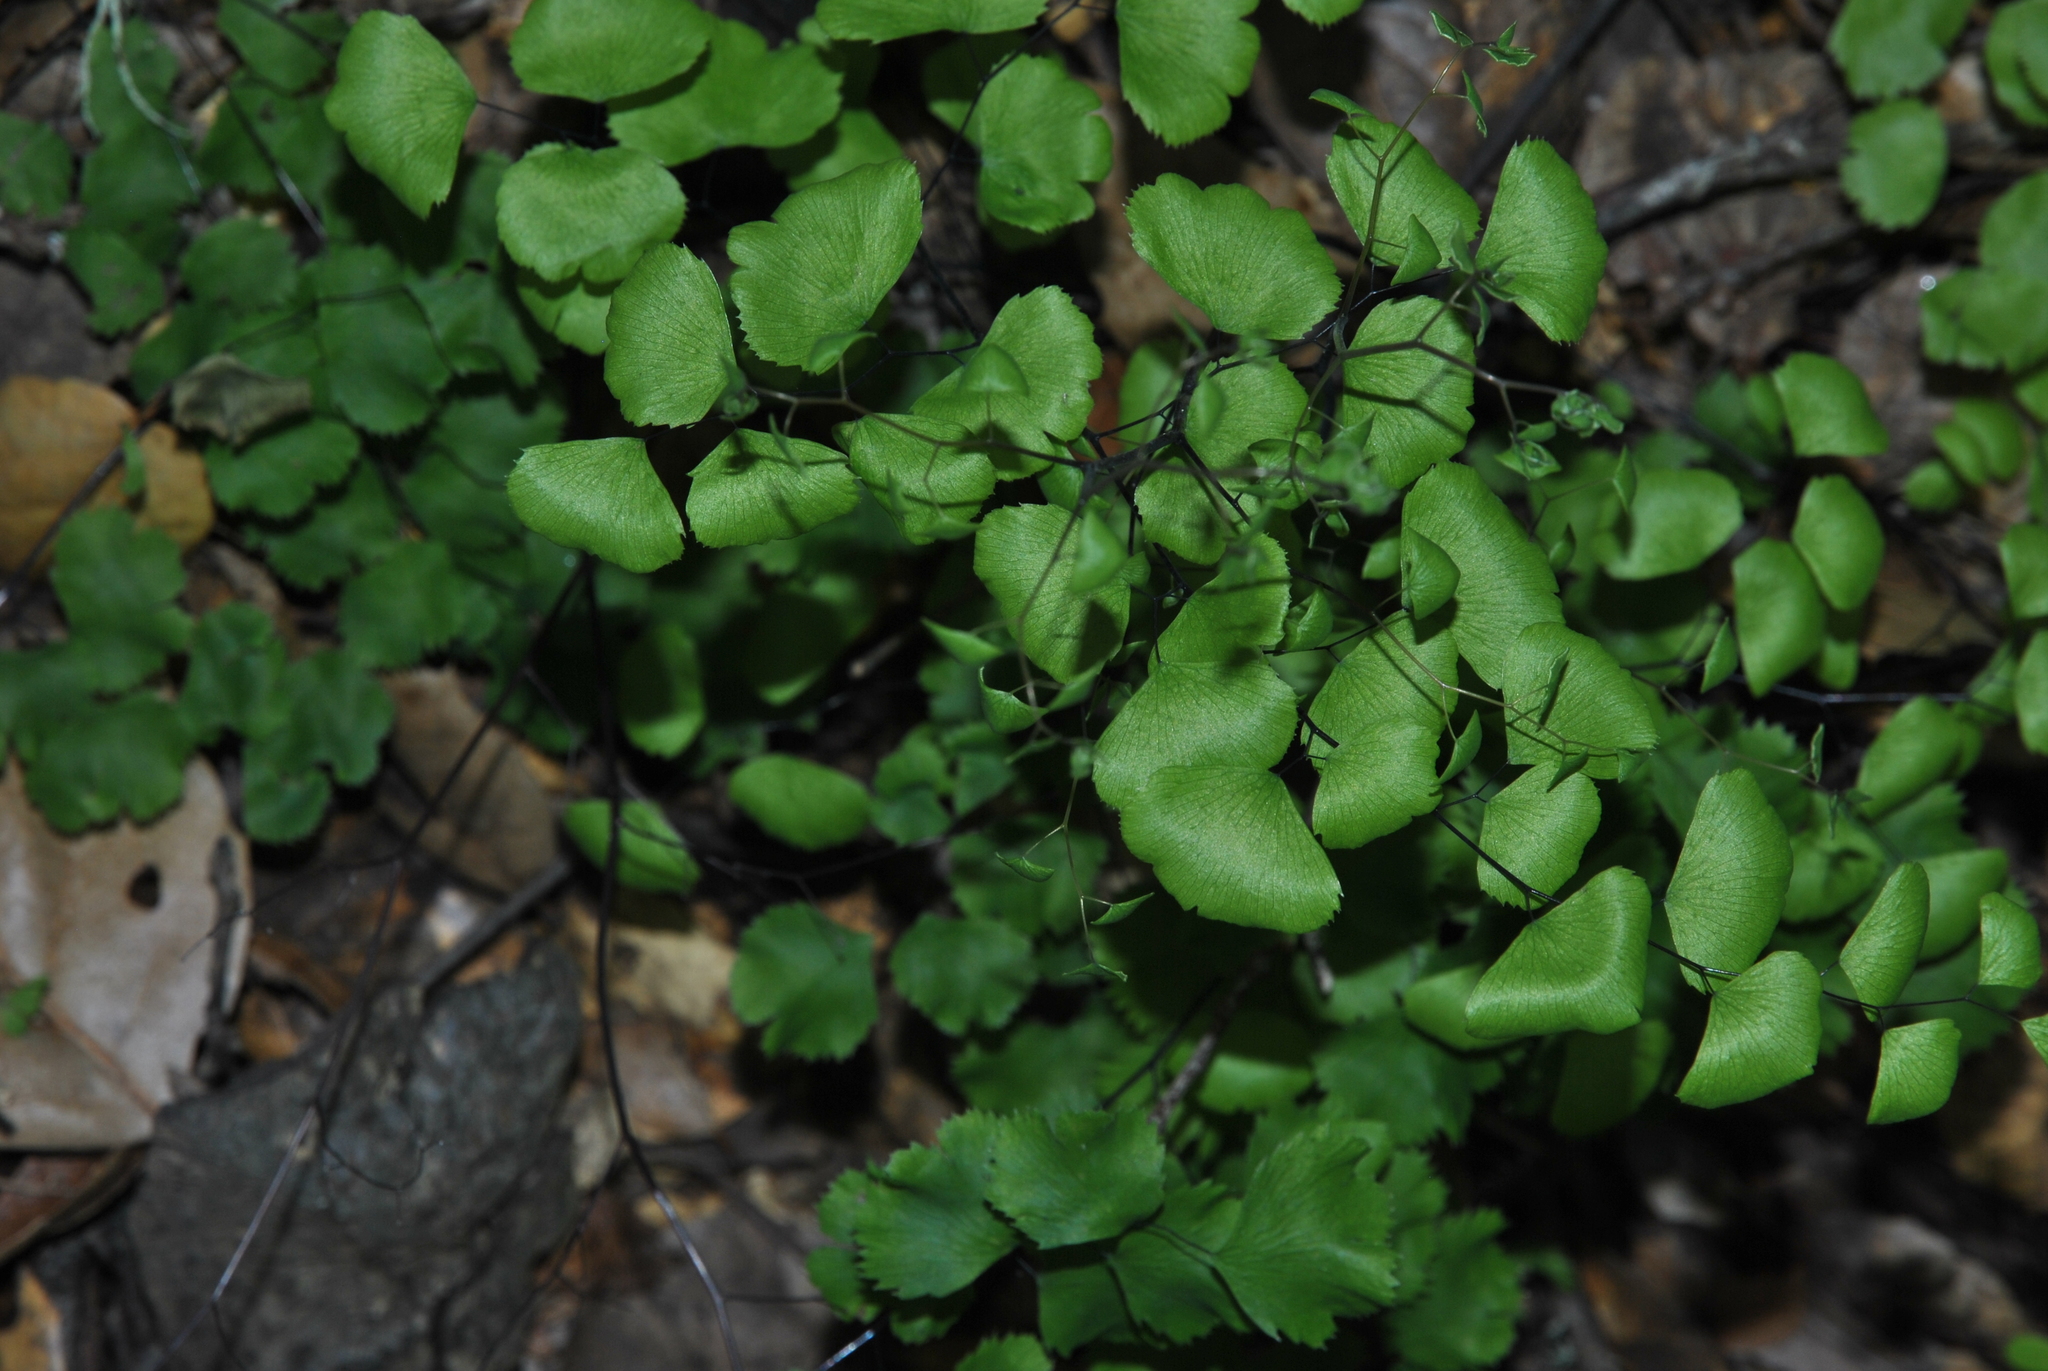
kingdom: Plantae
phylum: Tracheophyta
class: Polypodiopsida
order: Polypodiales
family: Pteridaceae
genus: Adiantum
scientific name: Adiantum jordanii
